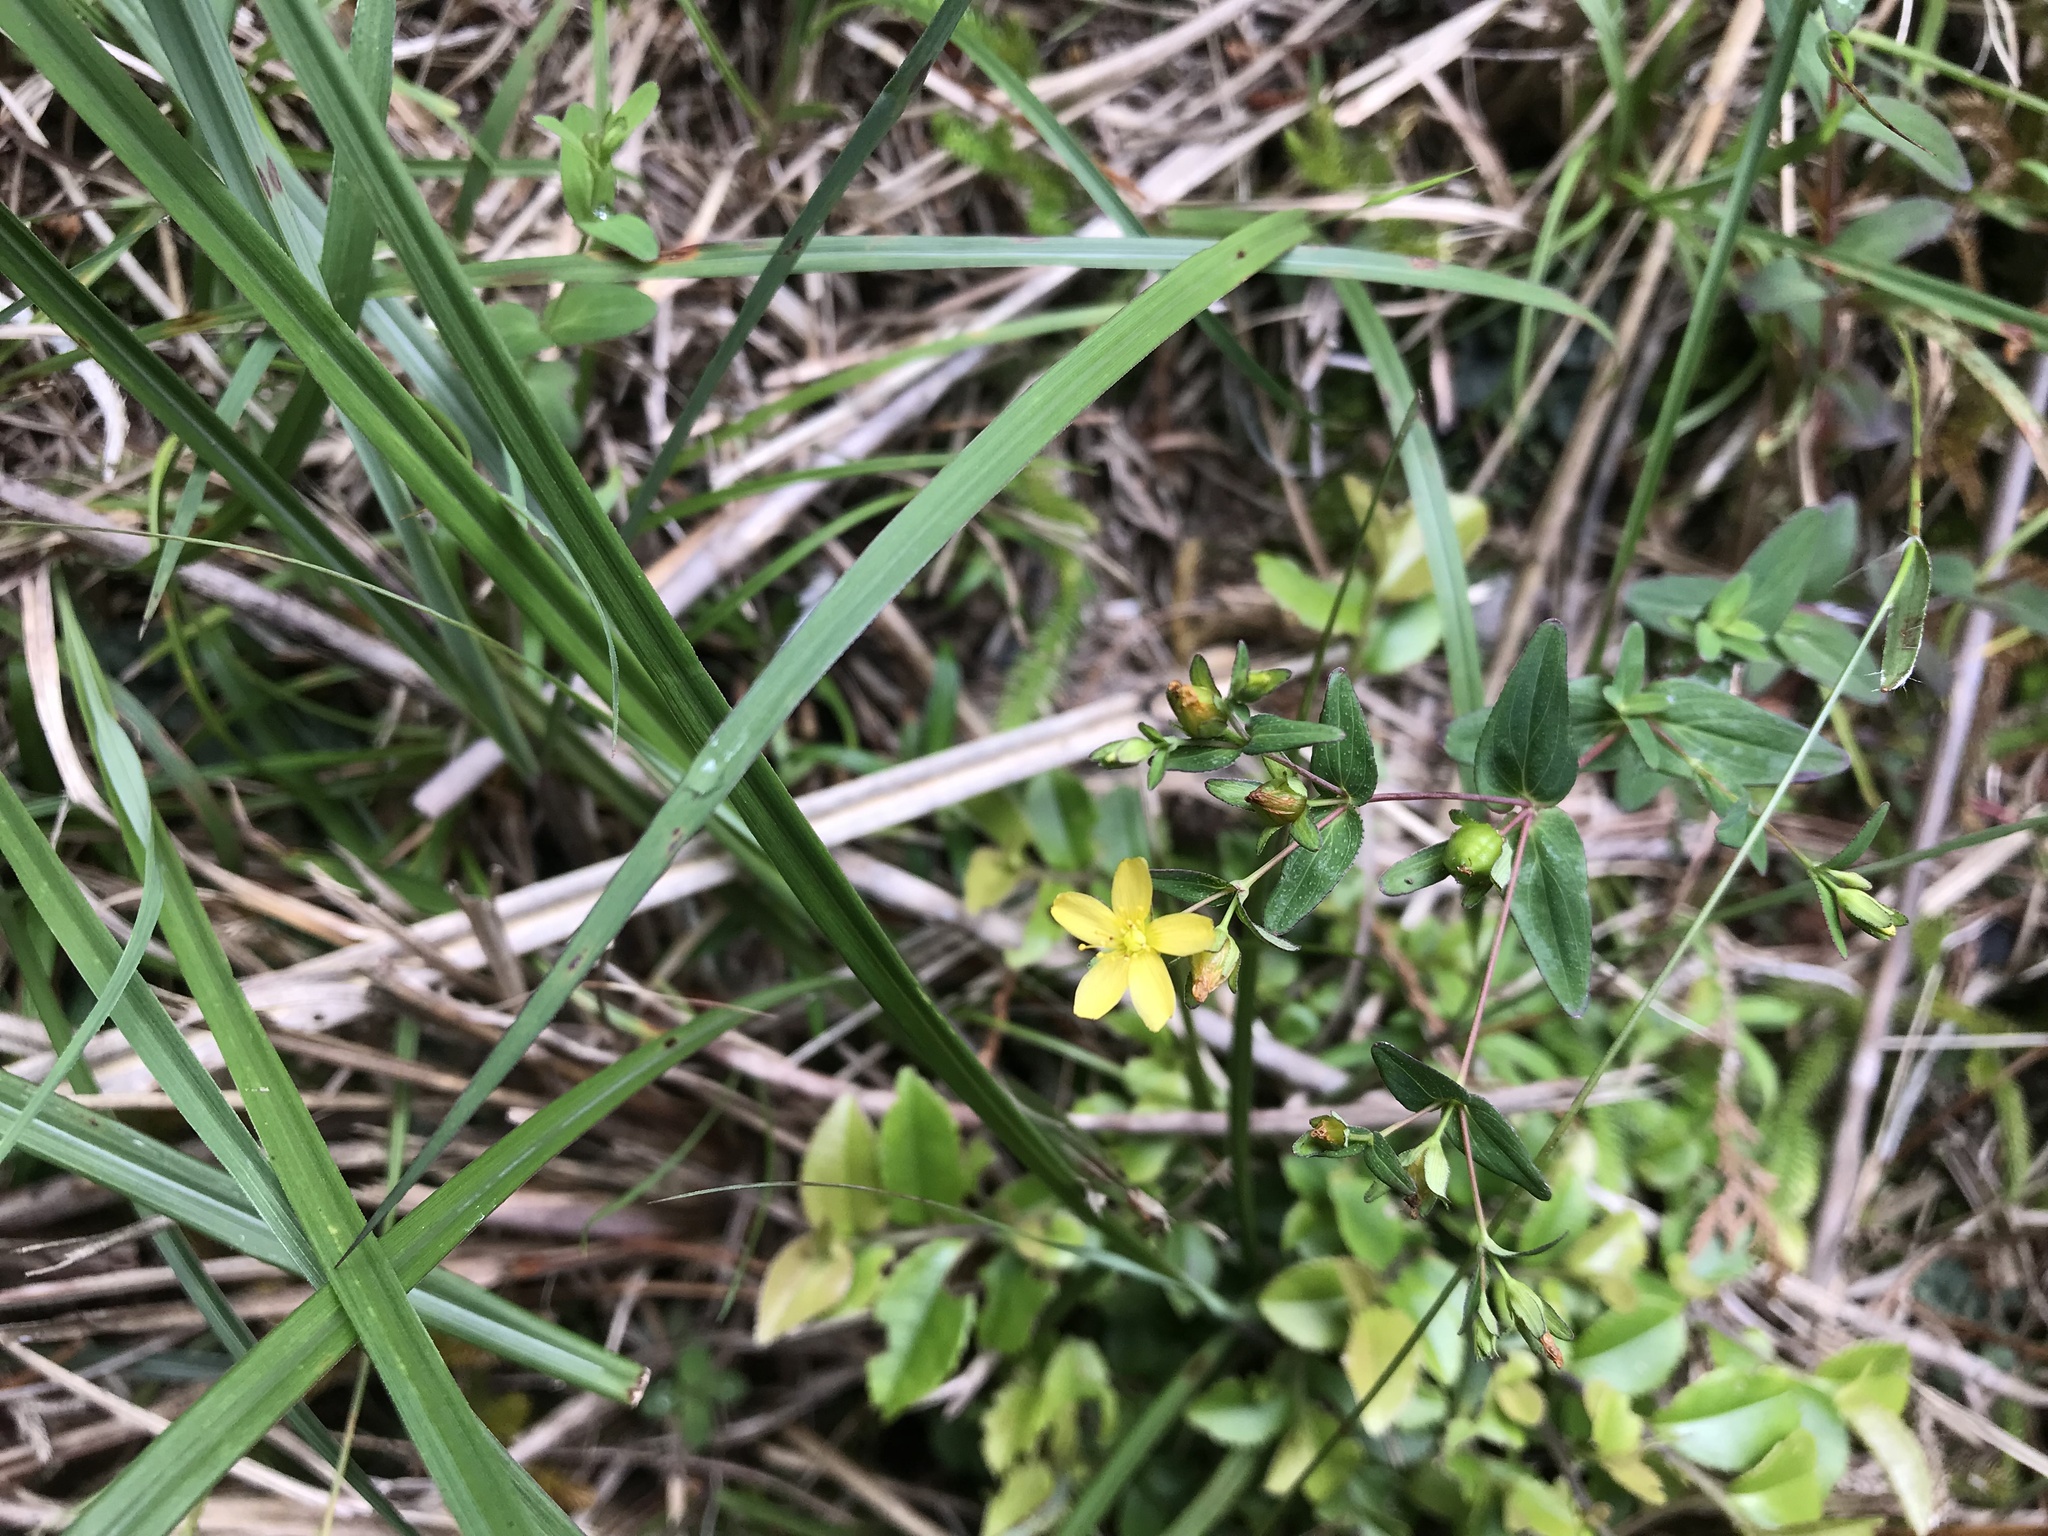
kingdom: Plantae
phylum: Tracheophyta
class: Magnoliopsida
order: Malpighiales
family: Hypericaceae
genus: Hypericum
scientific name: Hypericum taihezanense
